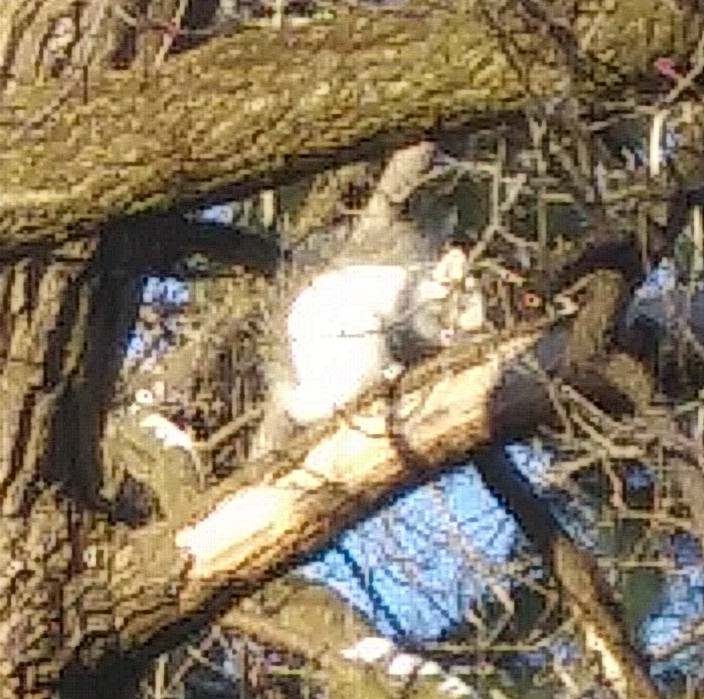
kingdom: Animalia
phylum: Chordata
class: Mammalia
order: Rodentia
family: Sciuridae
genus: Sciurus
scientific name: Sciurus carolinensis
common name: Eastern gray squirrel
